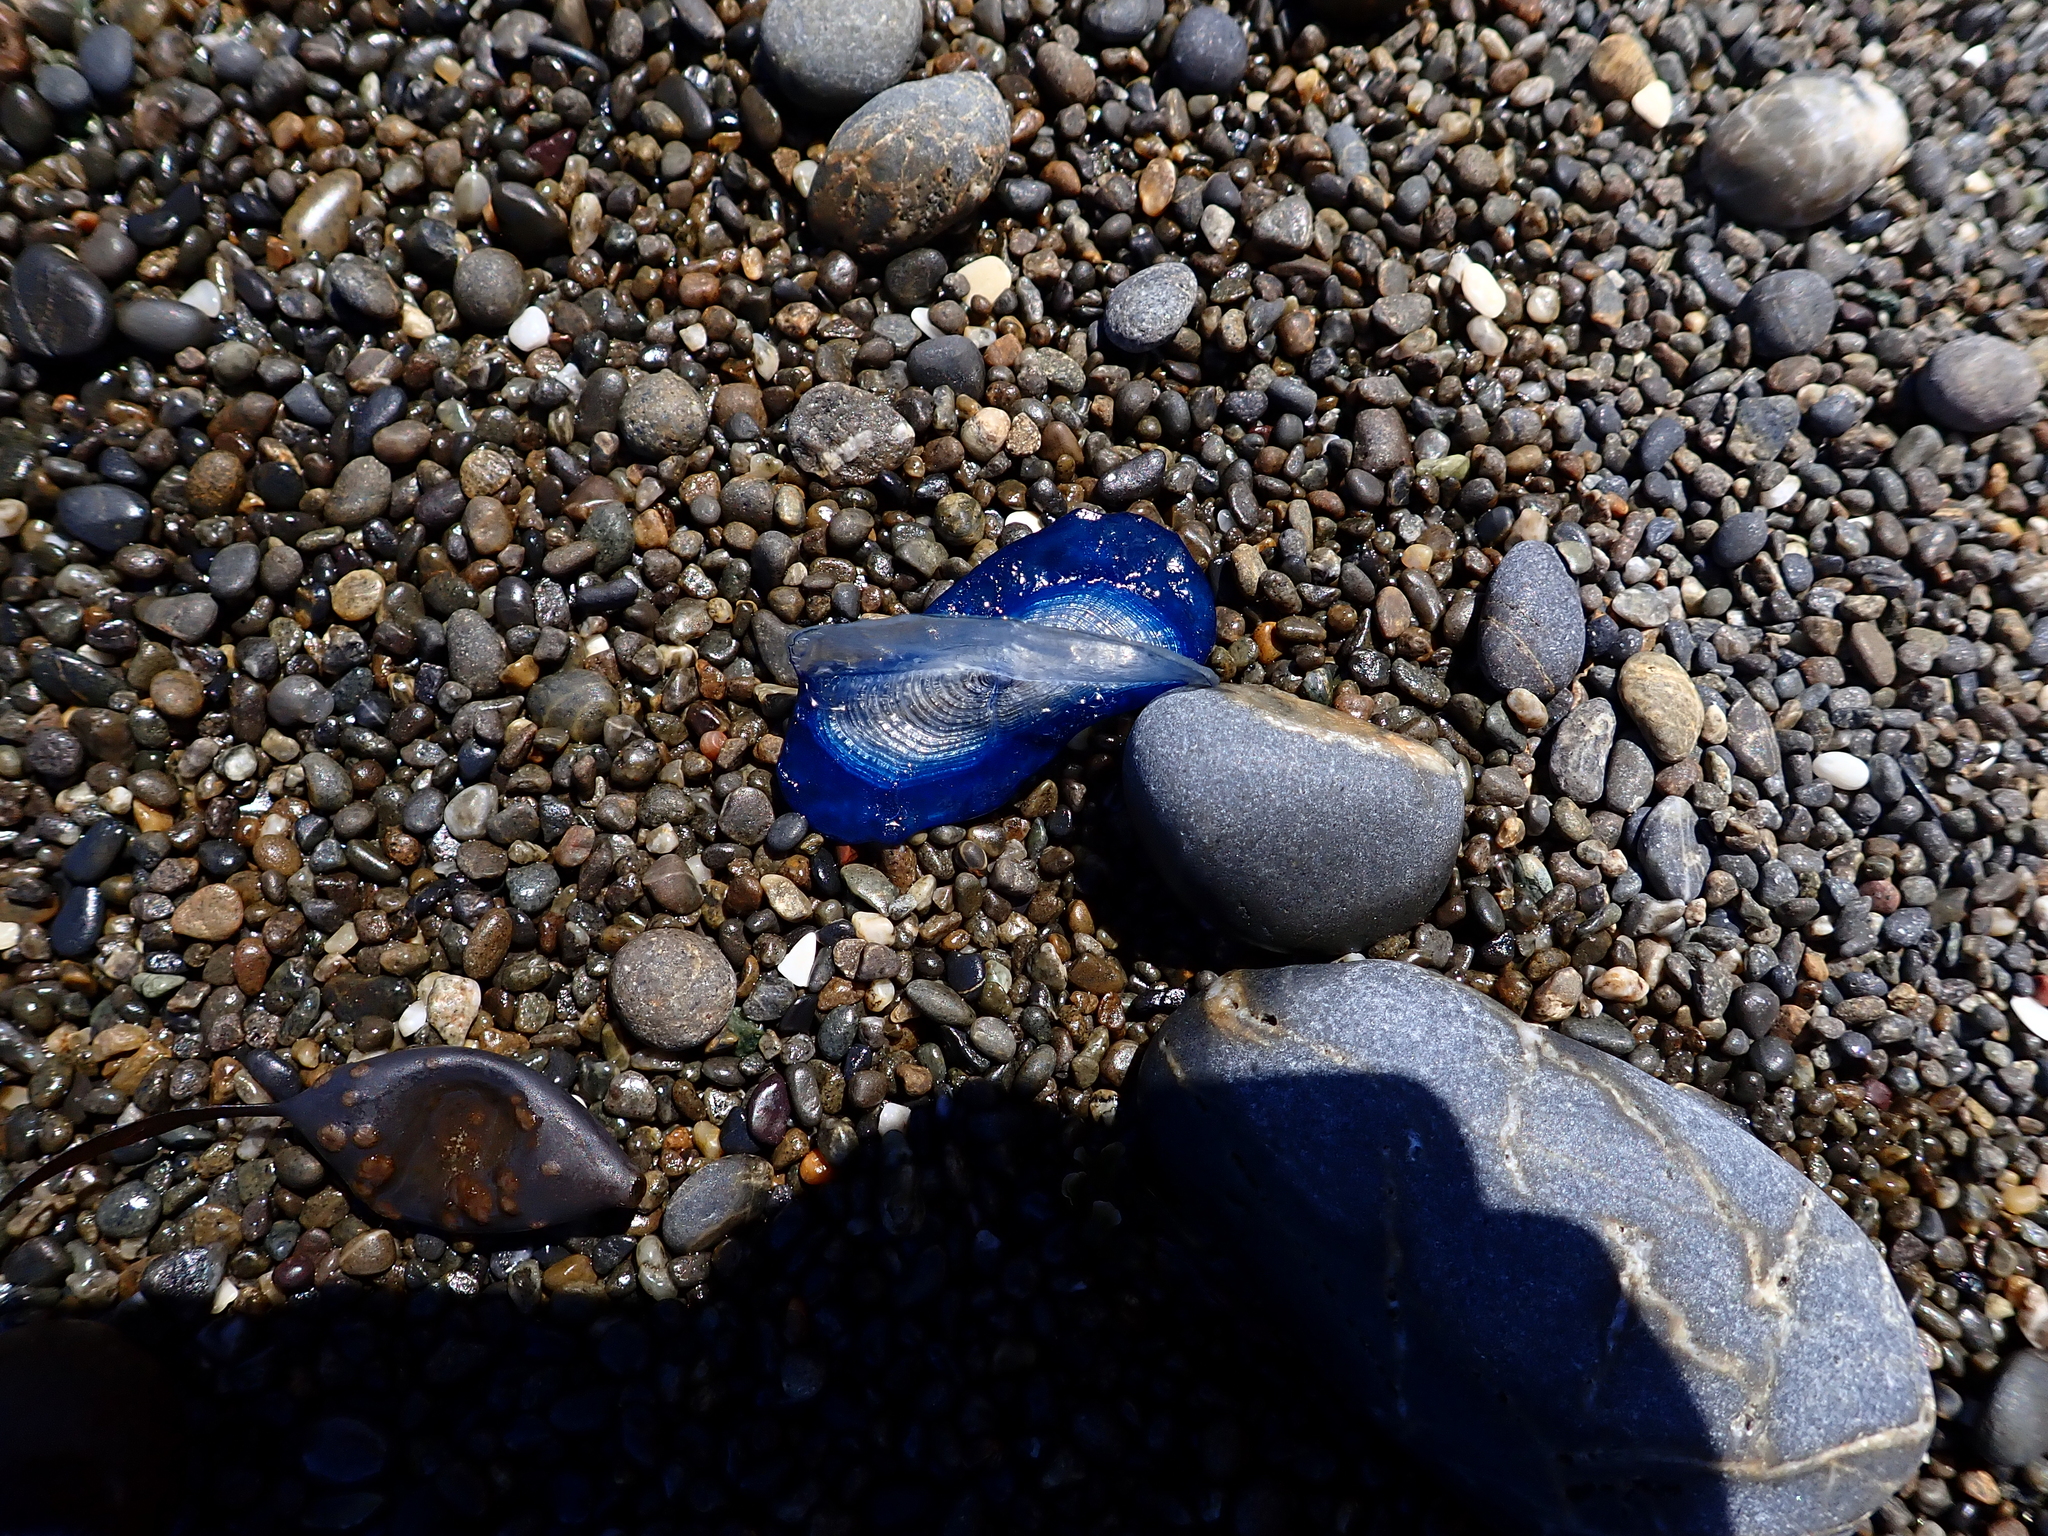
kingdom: Animalia
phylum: Cnidaria
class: Hydrozoa
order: Anthoathecata
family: Porpitidae
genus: Velella
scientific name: Velella velella
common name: By-the-wind-sailor
